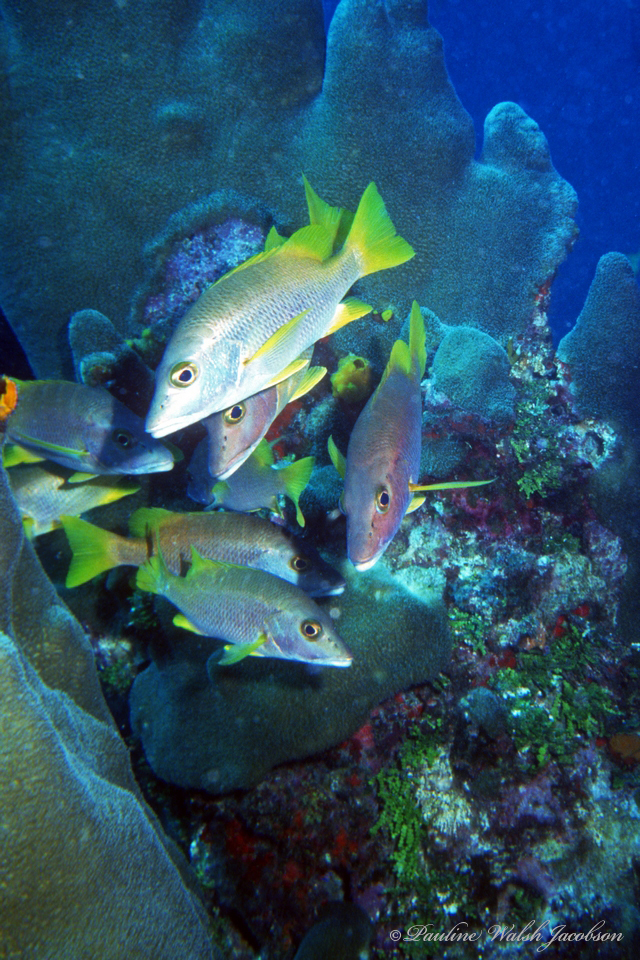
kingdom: Animalia
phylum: Chordata
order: Perciformes
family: Lutjanidae
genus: Lutjanus
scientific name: Lutjanus apodus
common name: Schoolmaster
